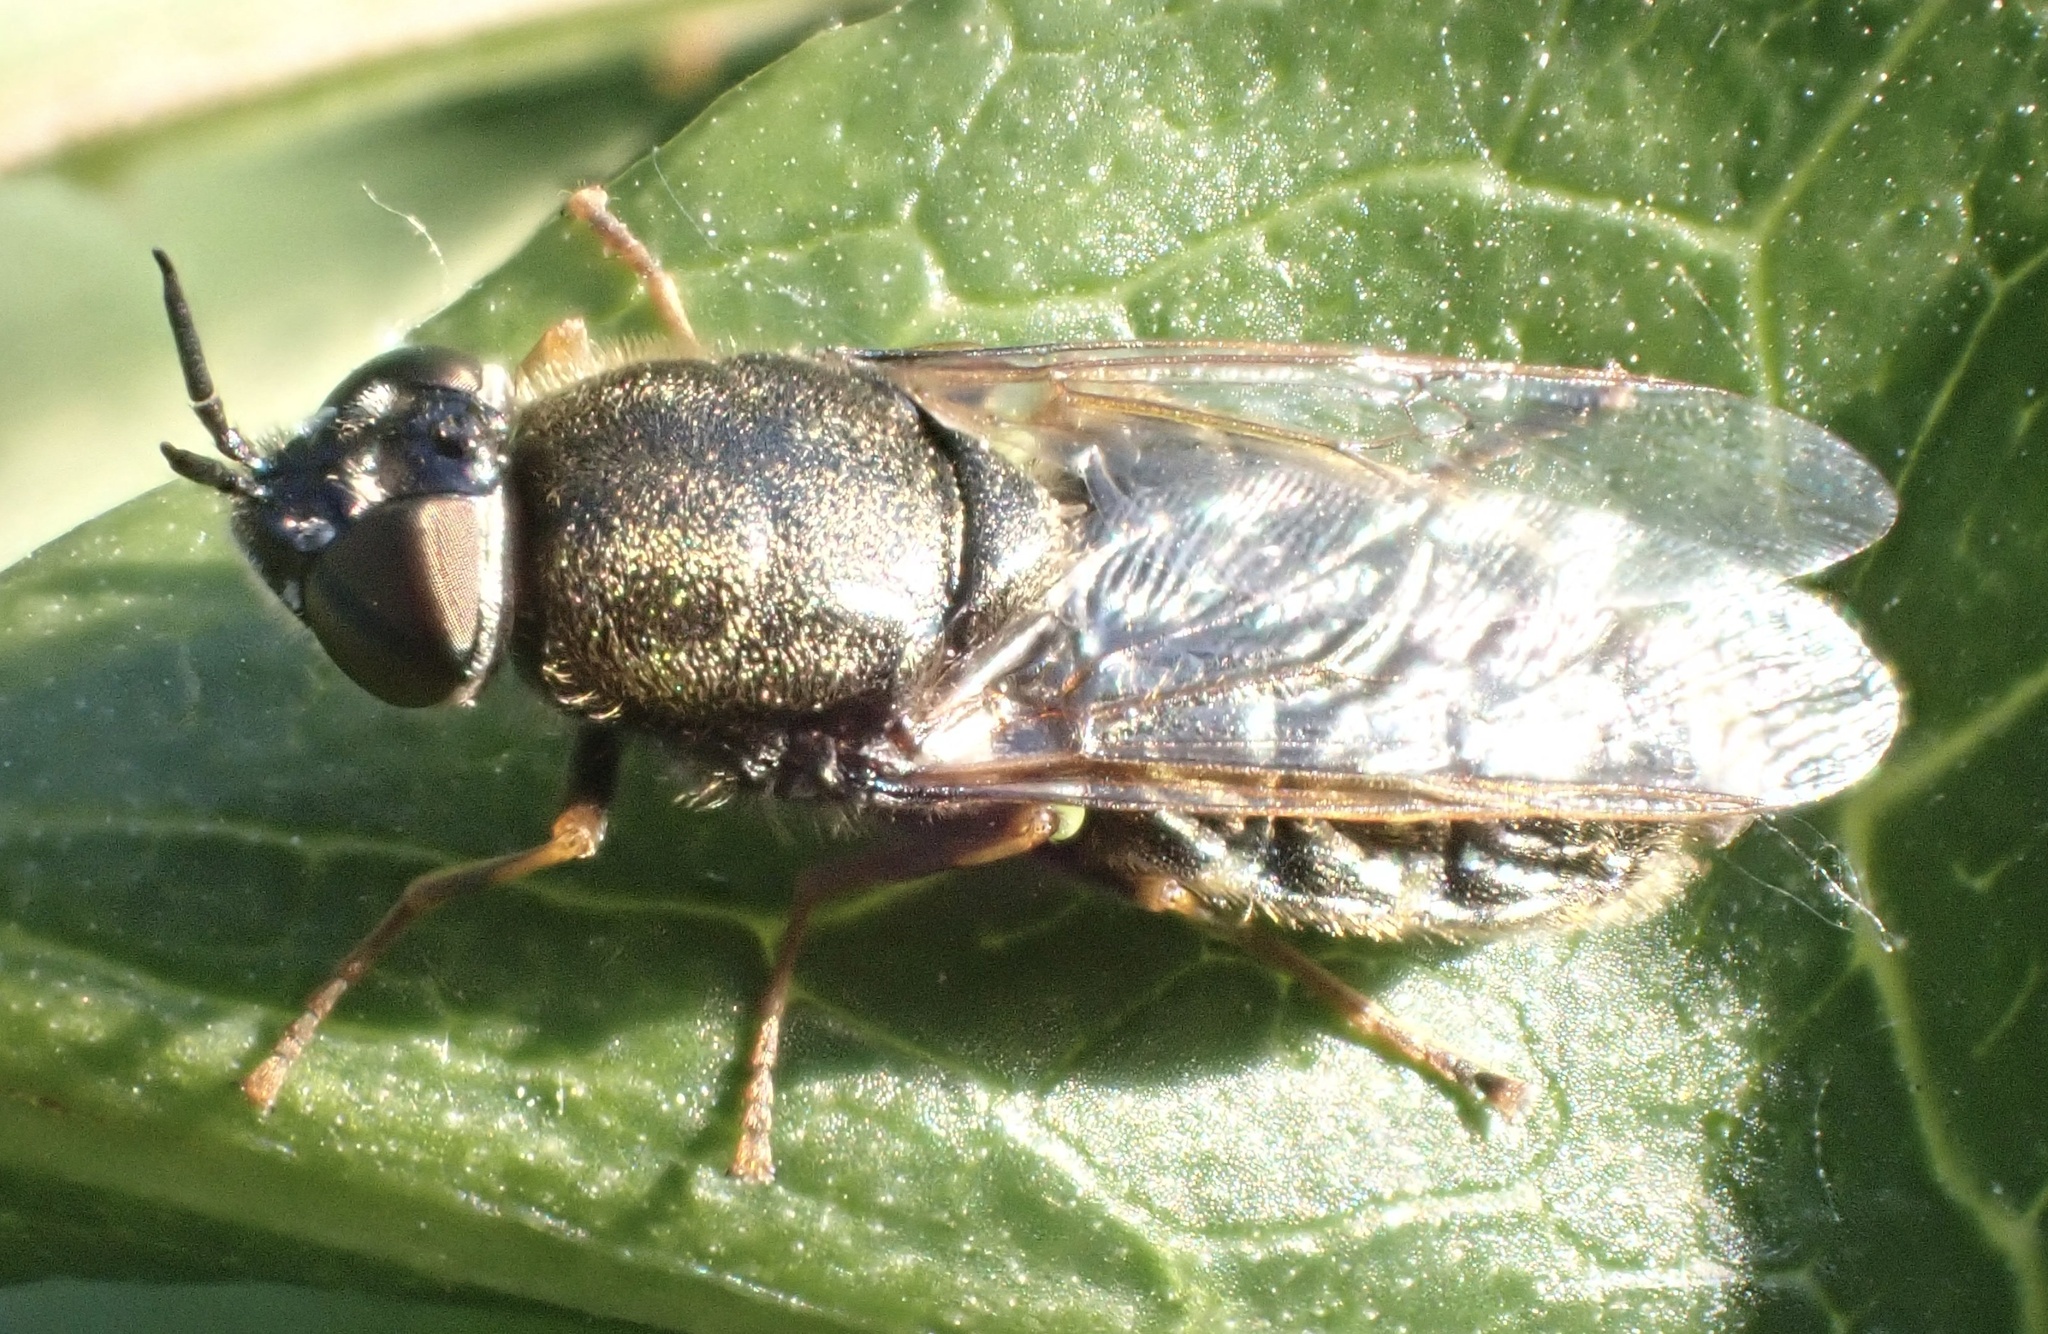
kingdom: Animalia
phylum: Arthropoda
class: Insecta
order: Diptera
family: Stratiomyidae
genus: Odontomyia
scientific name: Odontomyia argentata
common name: Silver colonel
